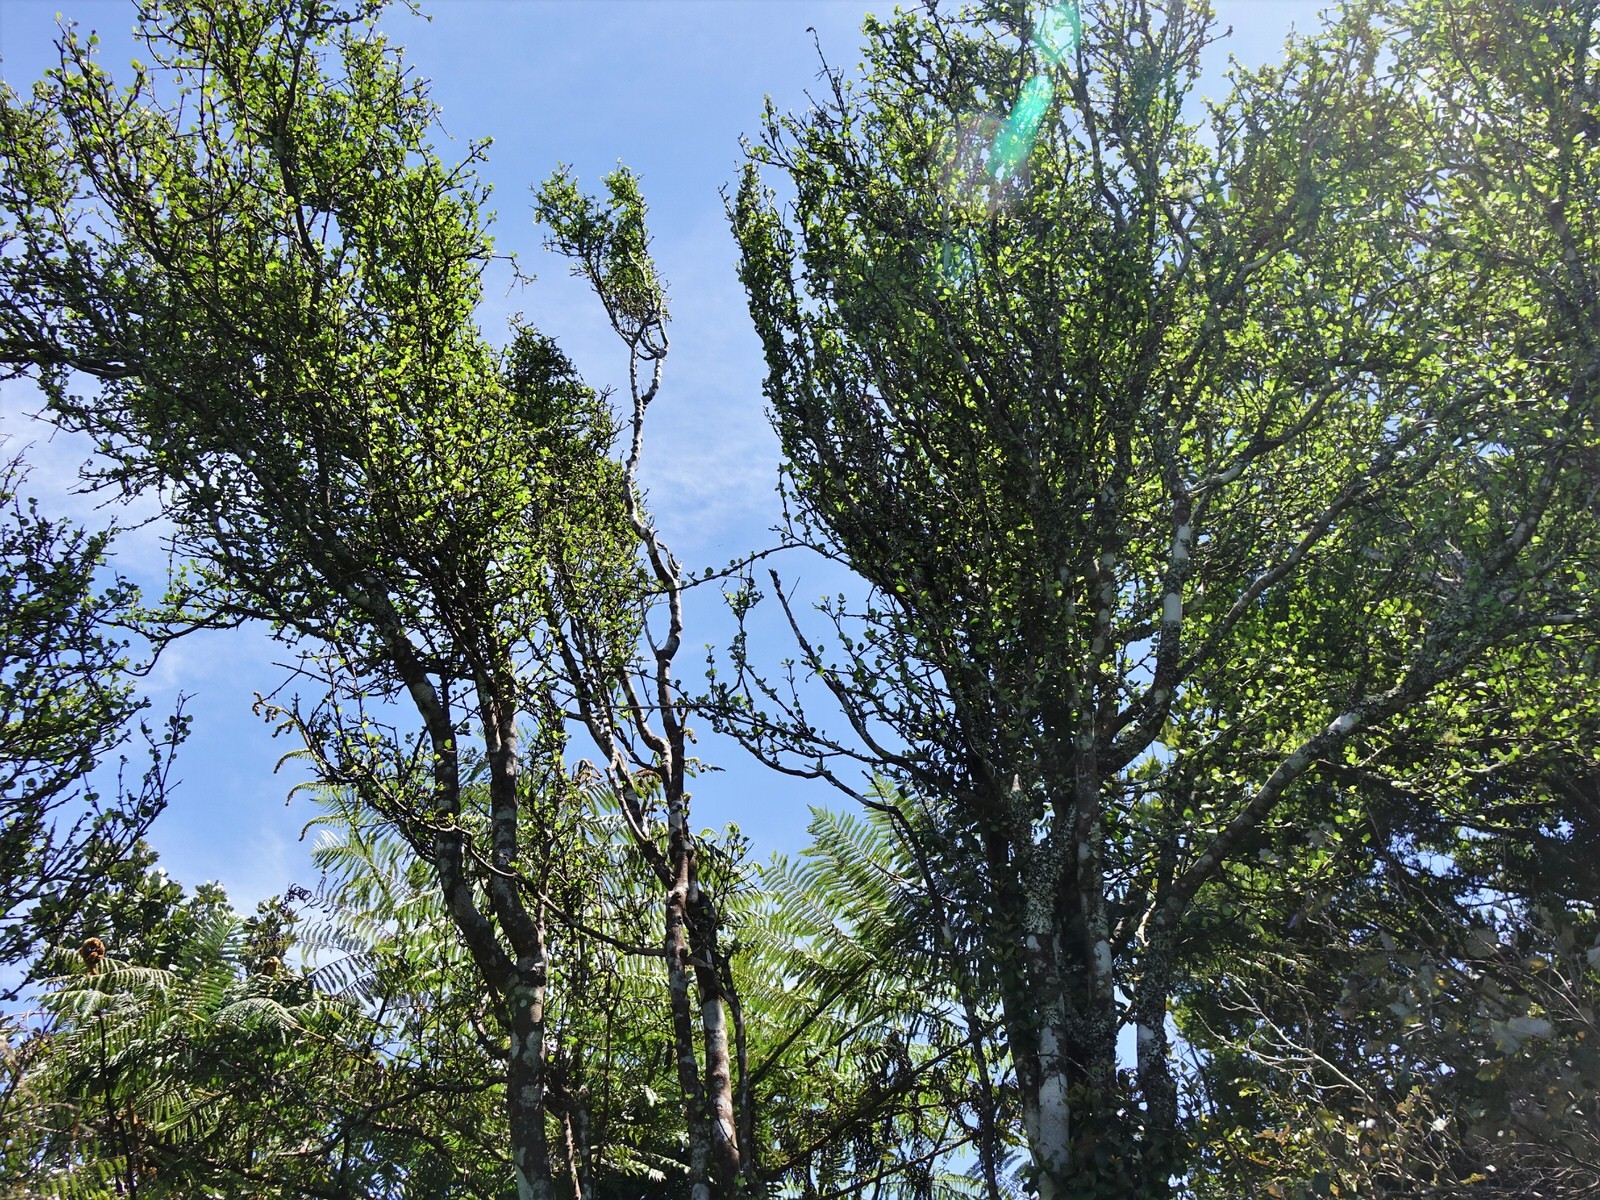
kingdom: Plantae
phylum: Tracheophyta
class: Magnoliopsida
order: Sapindales
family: Rutaceae
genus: Melicope
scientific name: Melicope simplex
